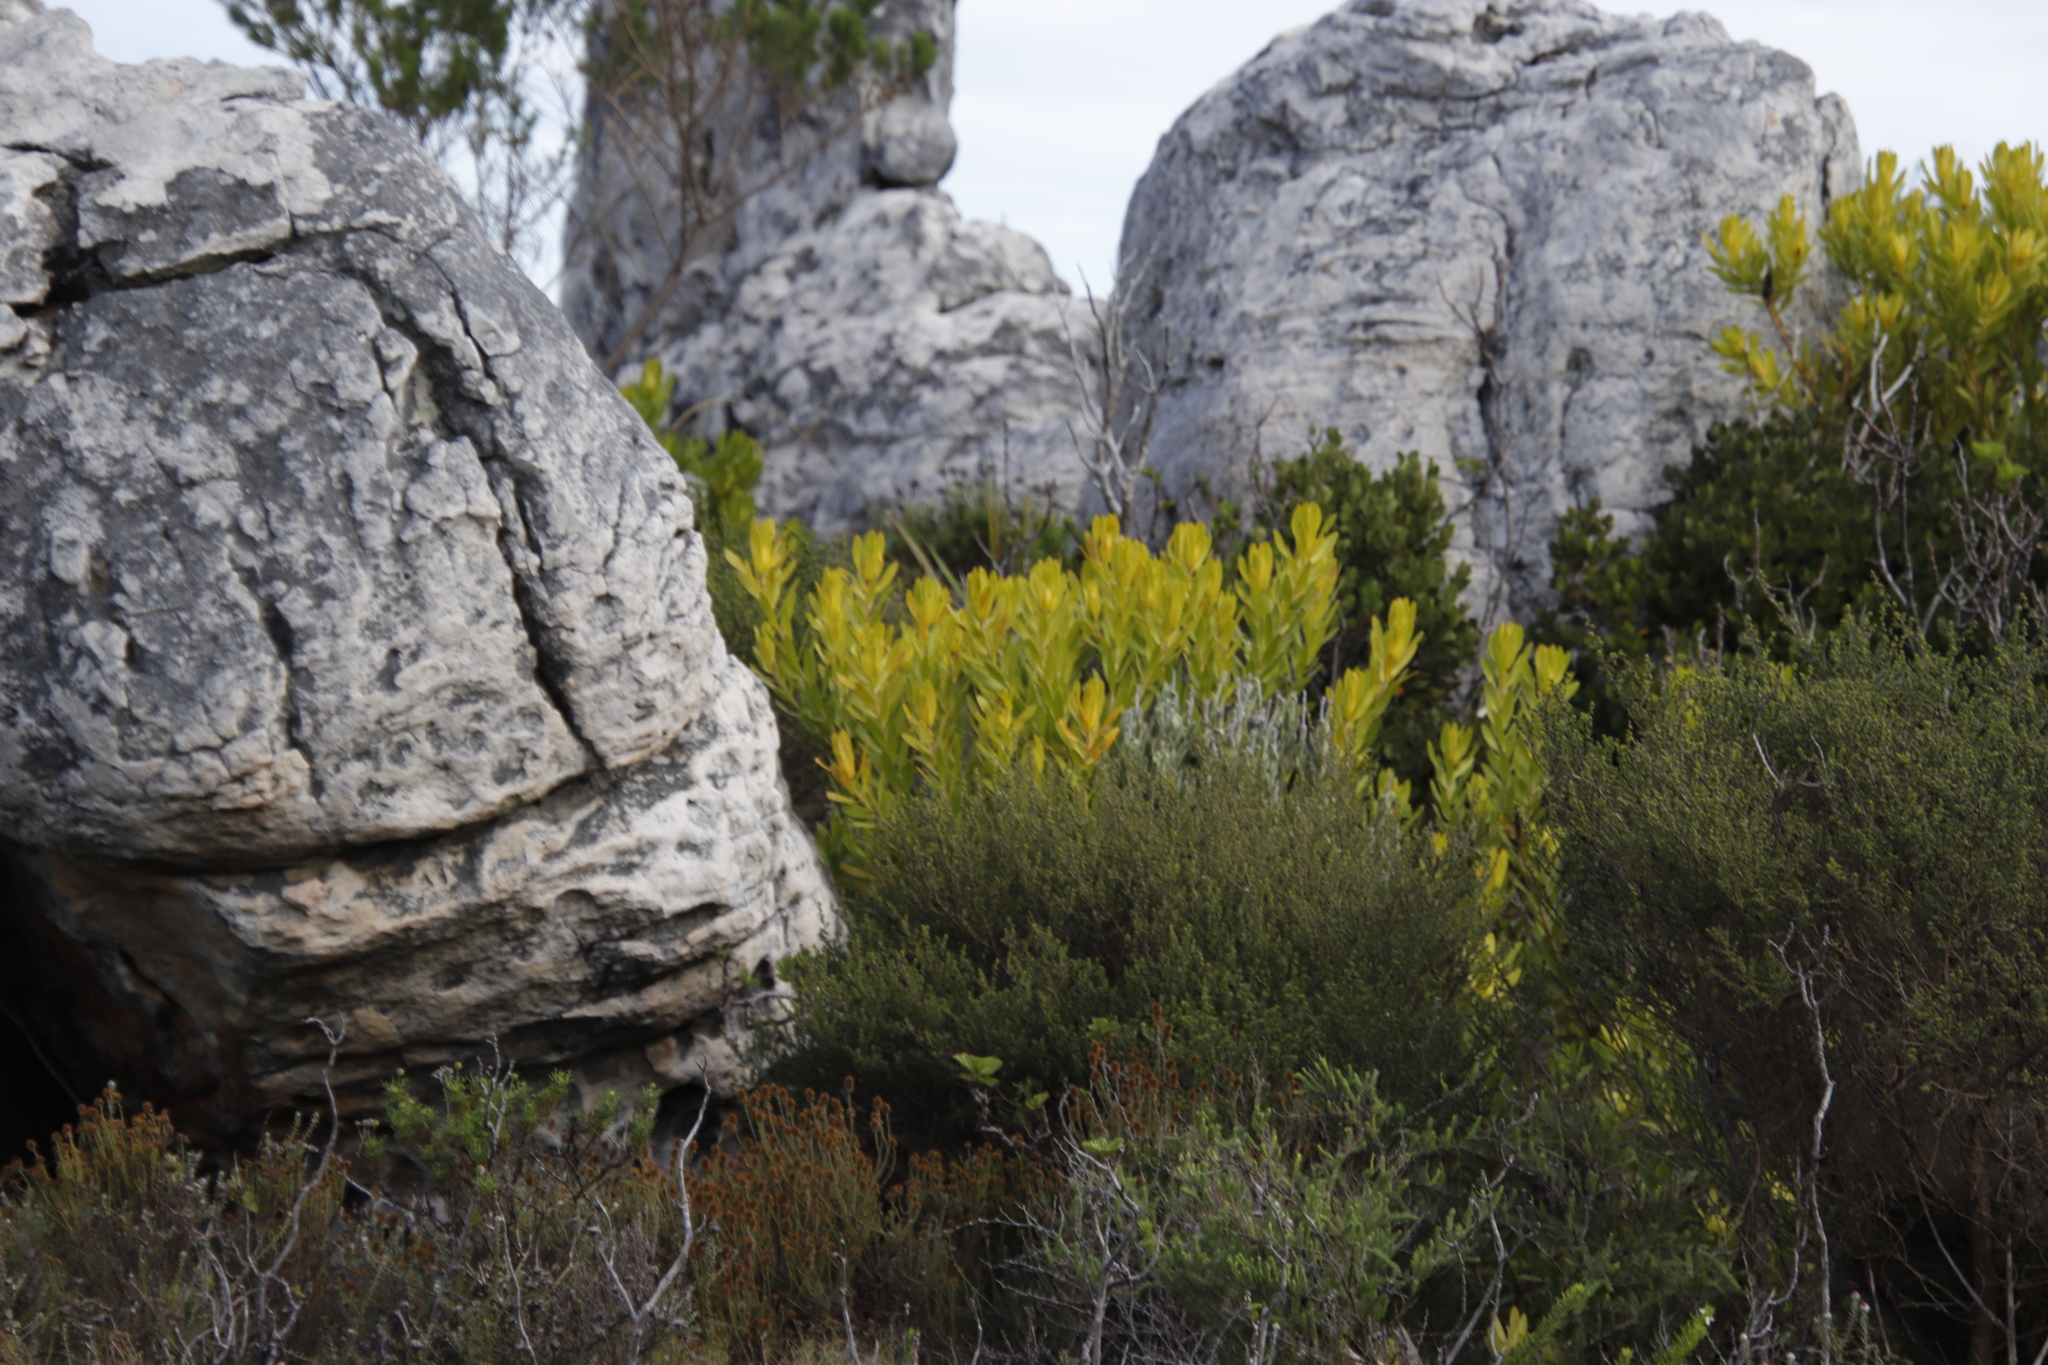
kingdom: Plantae
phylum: Tracheophyta
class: Magnoliopsida
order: Proteales
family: Proteaceae
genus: Leucadendron
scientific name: Leucadendron laureolum
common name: Golden sunshinebush
